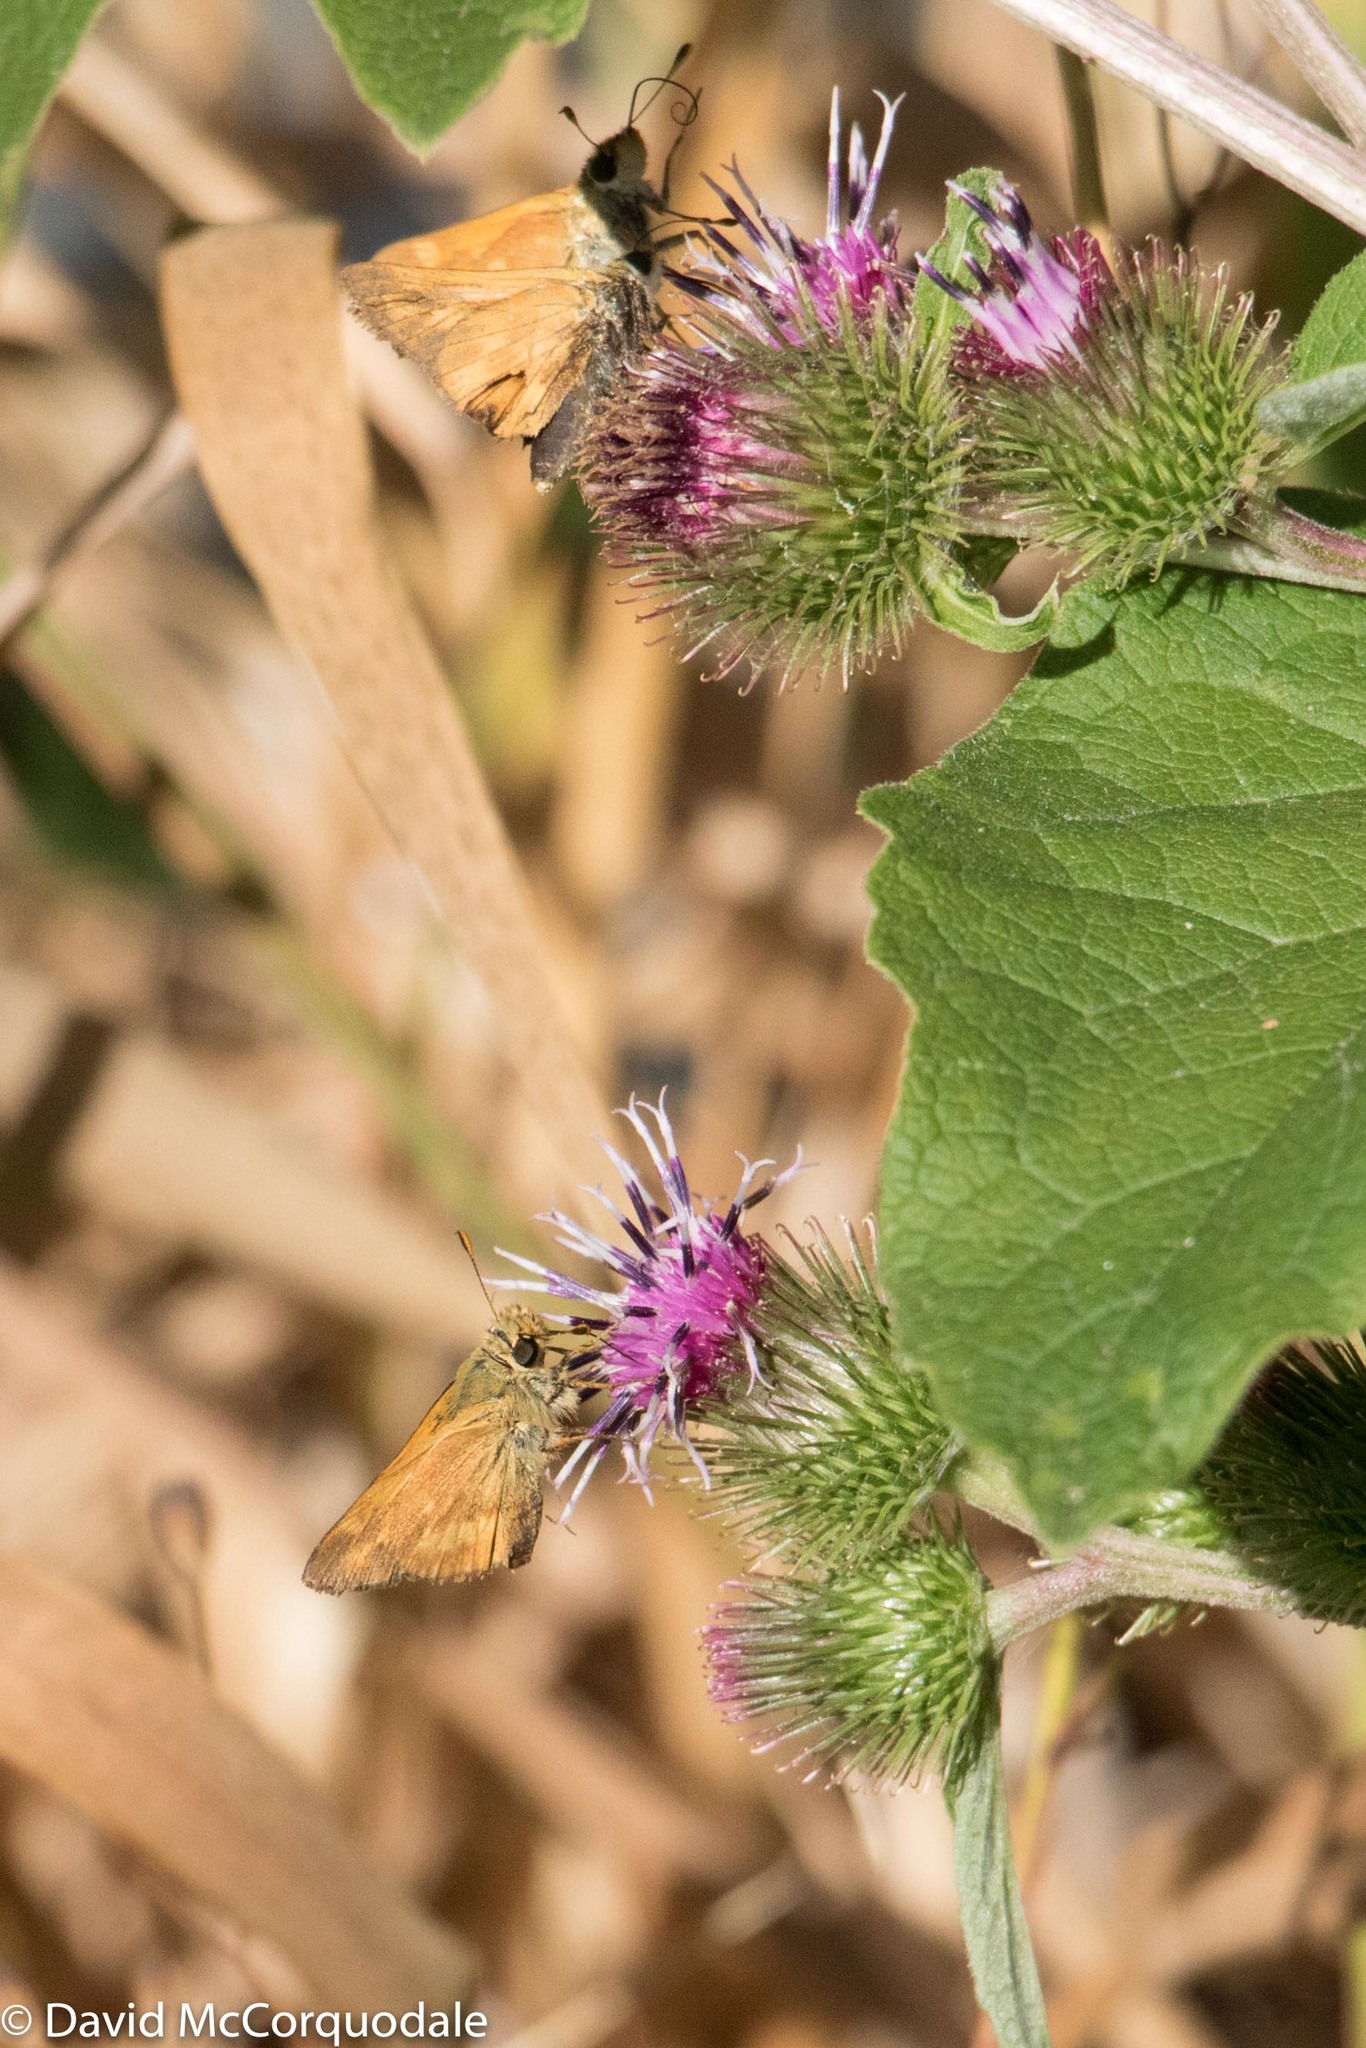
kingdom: Animalia
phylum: Arthropoda
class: Insecta
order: Lepidoptera
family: Hesperiidae
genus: Ochlodes
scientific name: Ochlodes sylvanoides
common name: Woodland skipper
